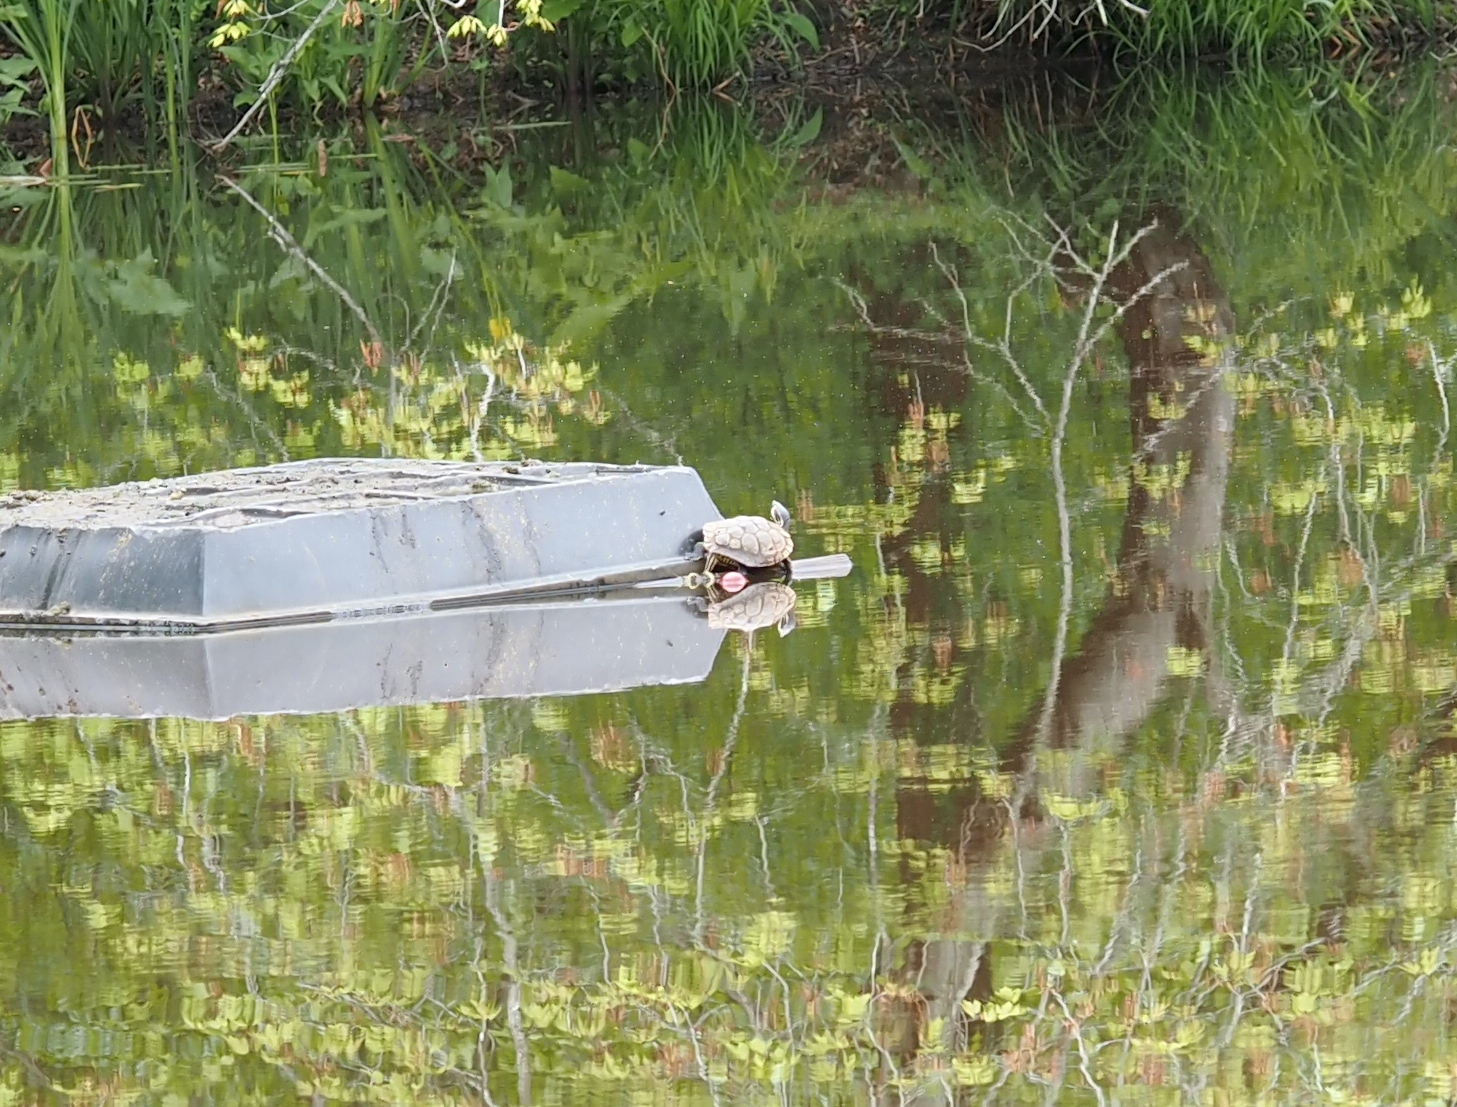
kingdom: Animalia
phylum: Chordata
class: Testudines
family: Emydidae
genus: Trachemys
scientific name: Trachemys scripta
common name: Slider
